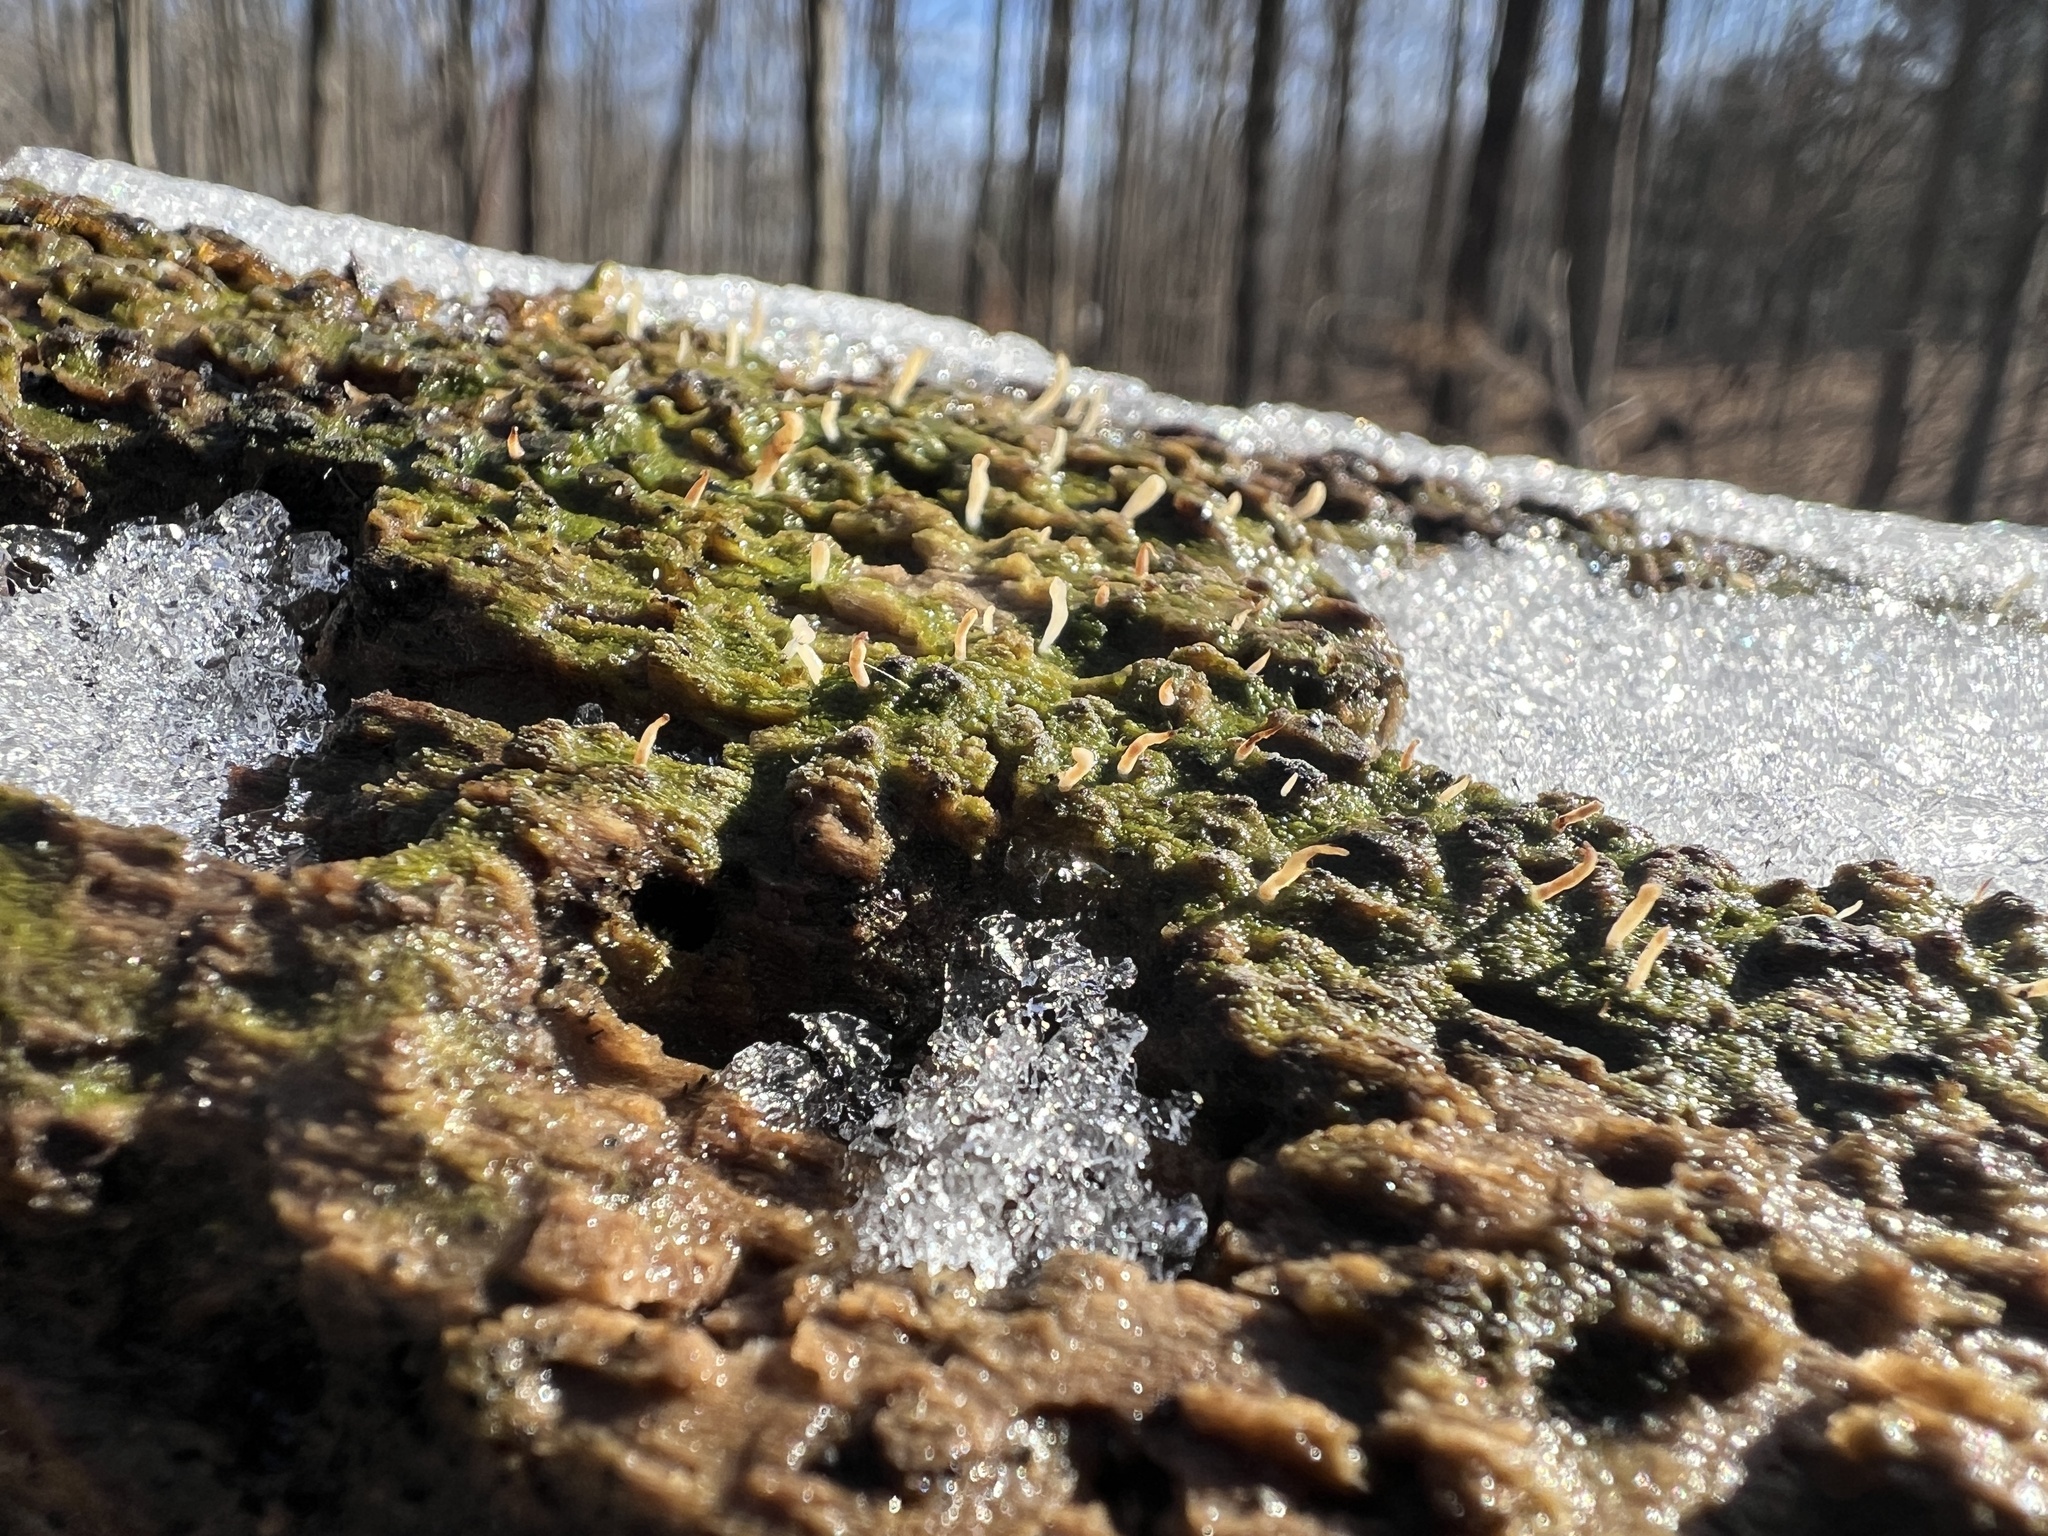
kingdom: Fungi
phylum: Basidiomycota
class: Agaricomycetes
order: Cantharellales
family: Hydnaceae
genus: Multiclavula
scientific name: Multiclavula mucida
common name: White green-algae coral
